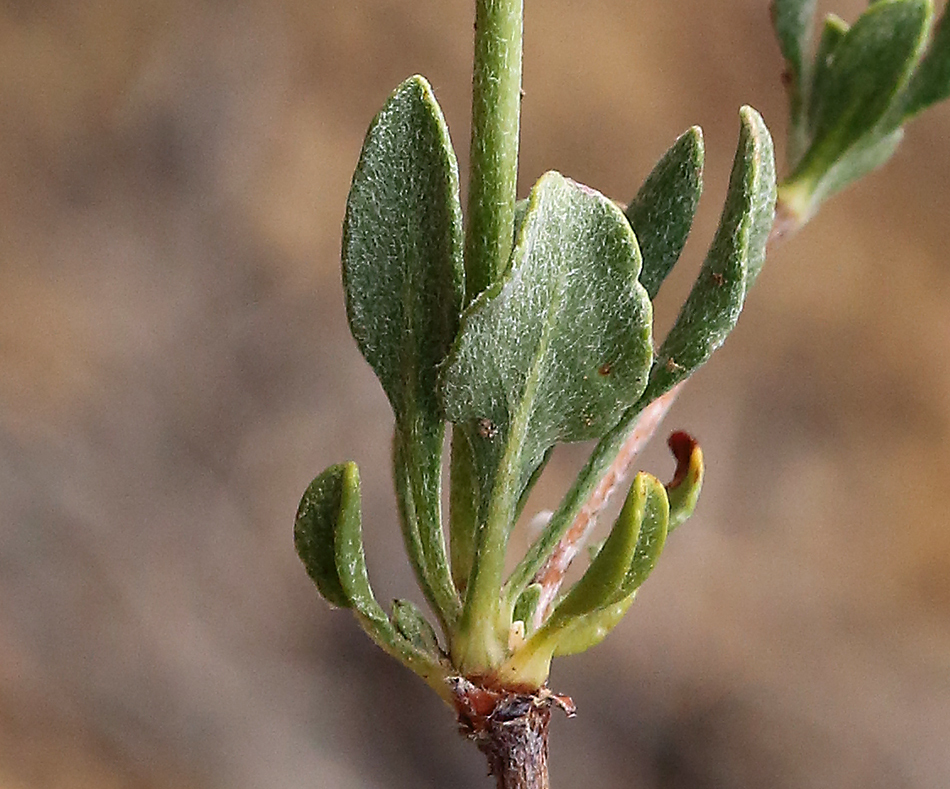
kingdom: Plantae
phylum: Tracheophyta
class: Magnoliopsida
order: Caryophyllales
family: Polygonaceae
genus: Eriogonum
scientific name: Eriogonum umbellatum
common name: Sulfur-buckwheat
